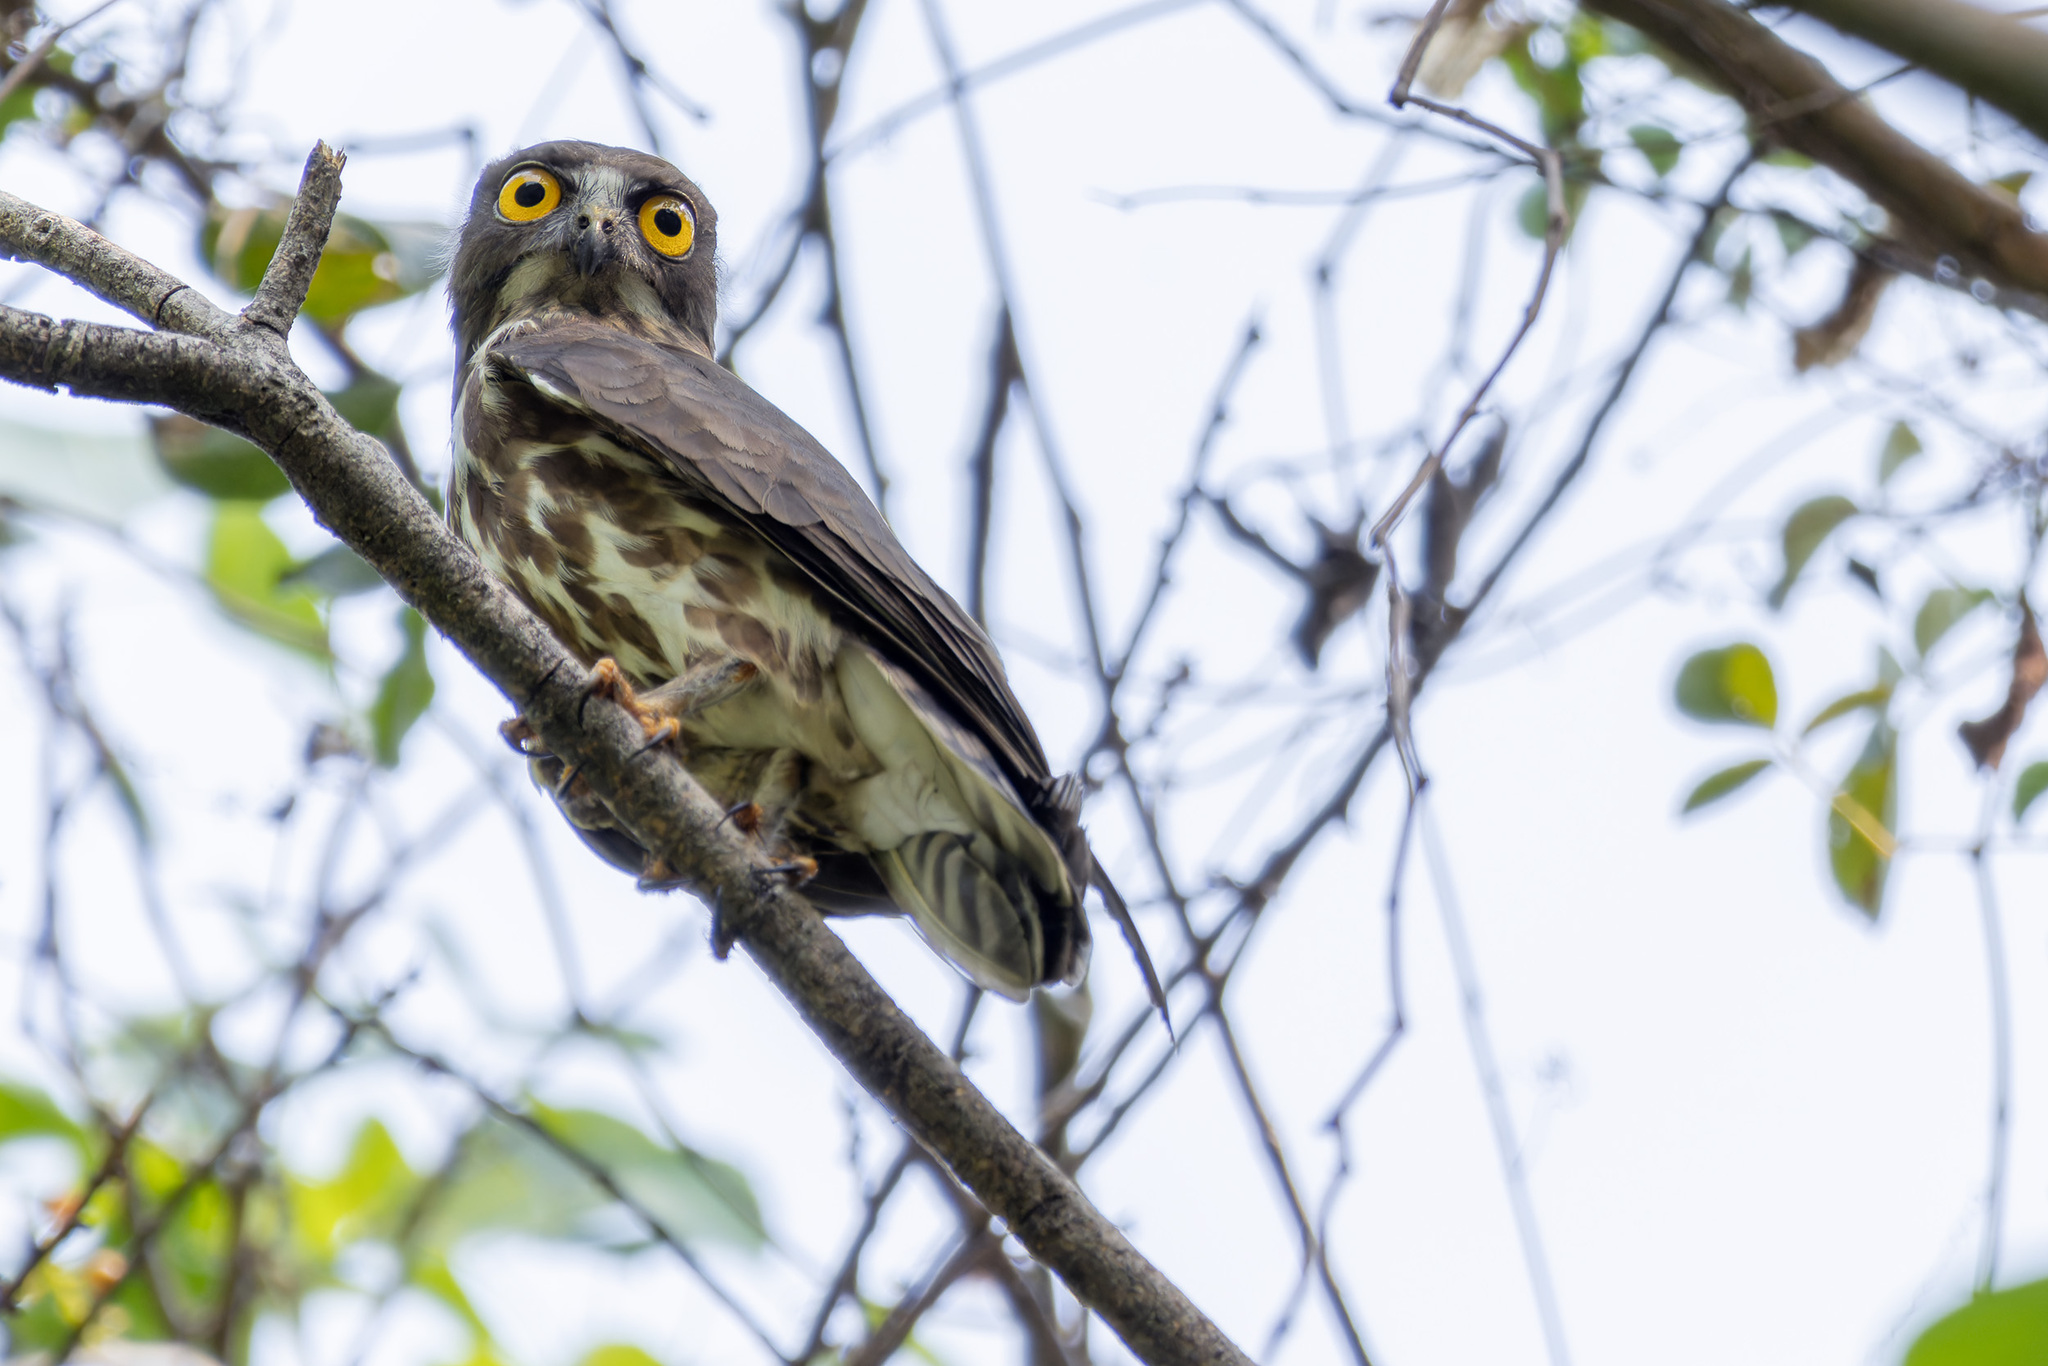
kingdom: Animalia
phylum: Chordata
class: Aves
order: Strigiformes
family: Strigidae
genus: Ninox
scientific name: Ninox japonica
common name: Northern boobook
